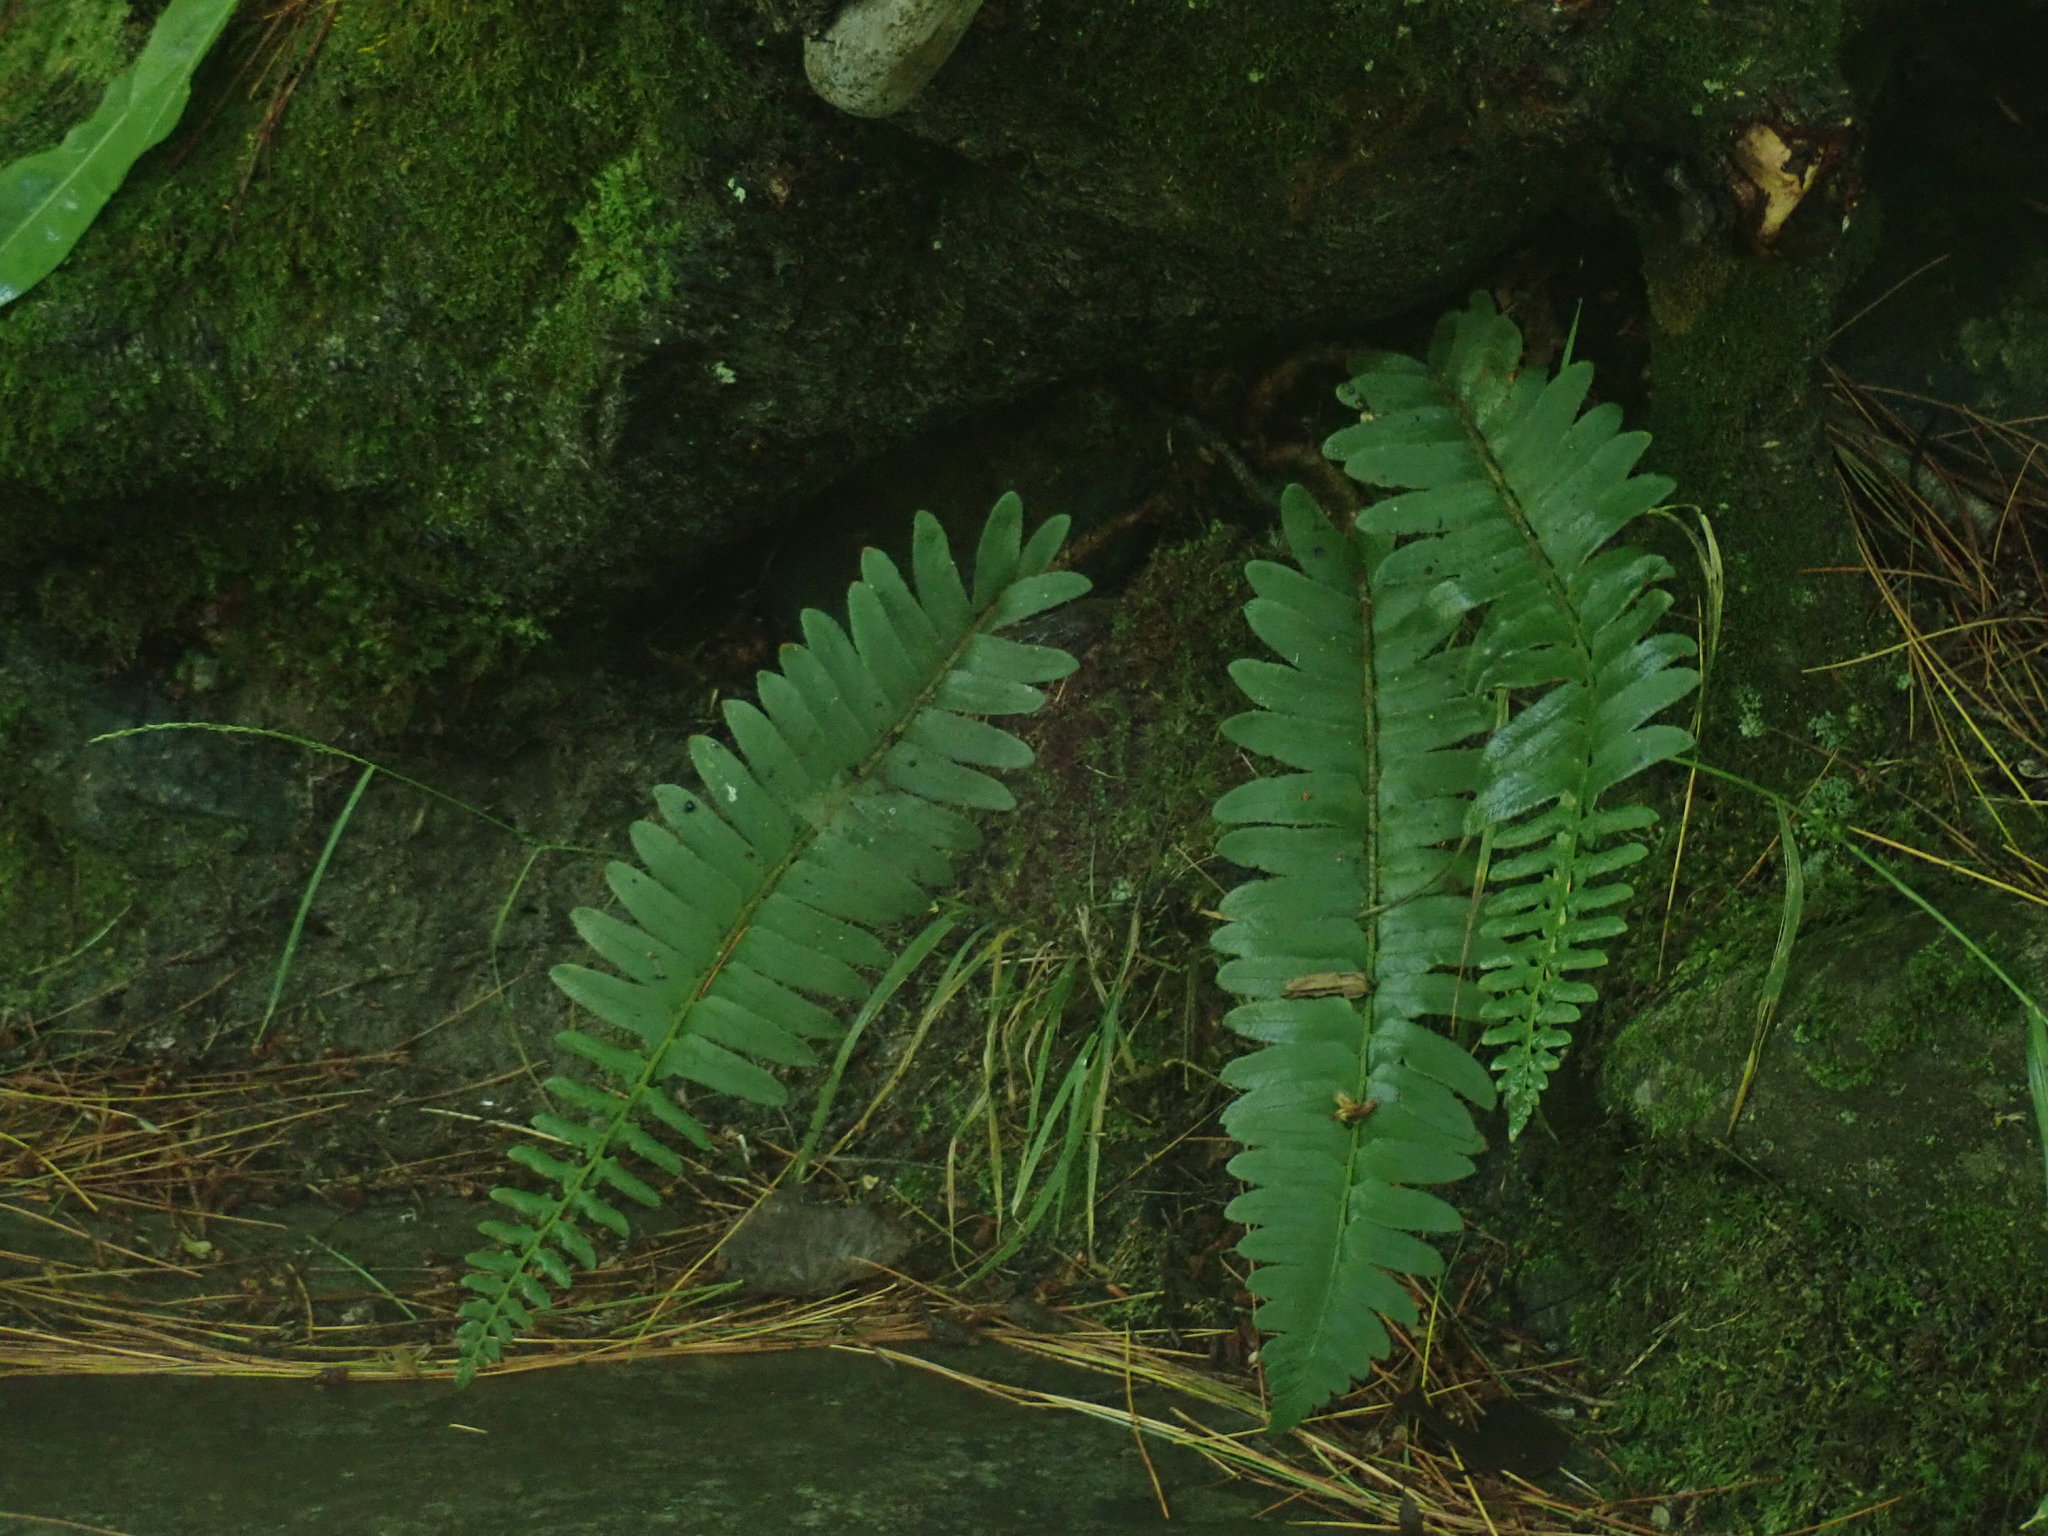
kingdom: Plantae
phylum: Tracheophyta
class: Polypodiopsida
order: Polypodiales
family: Dryopteridaceae
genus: Polystichum
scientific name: Polystichum acrostichoides
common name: Christmas fern
